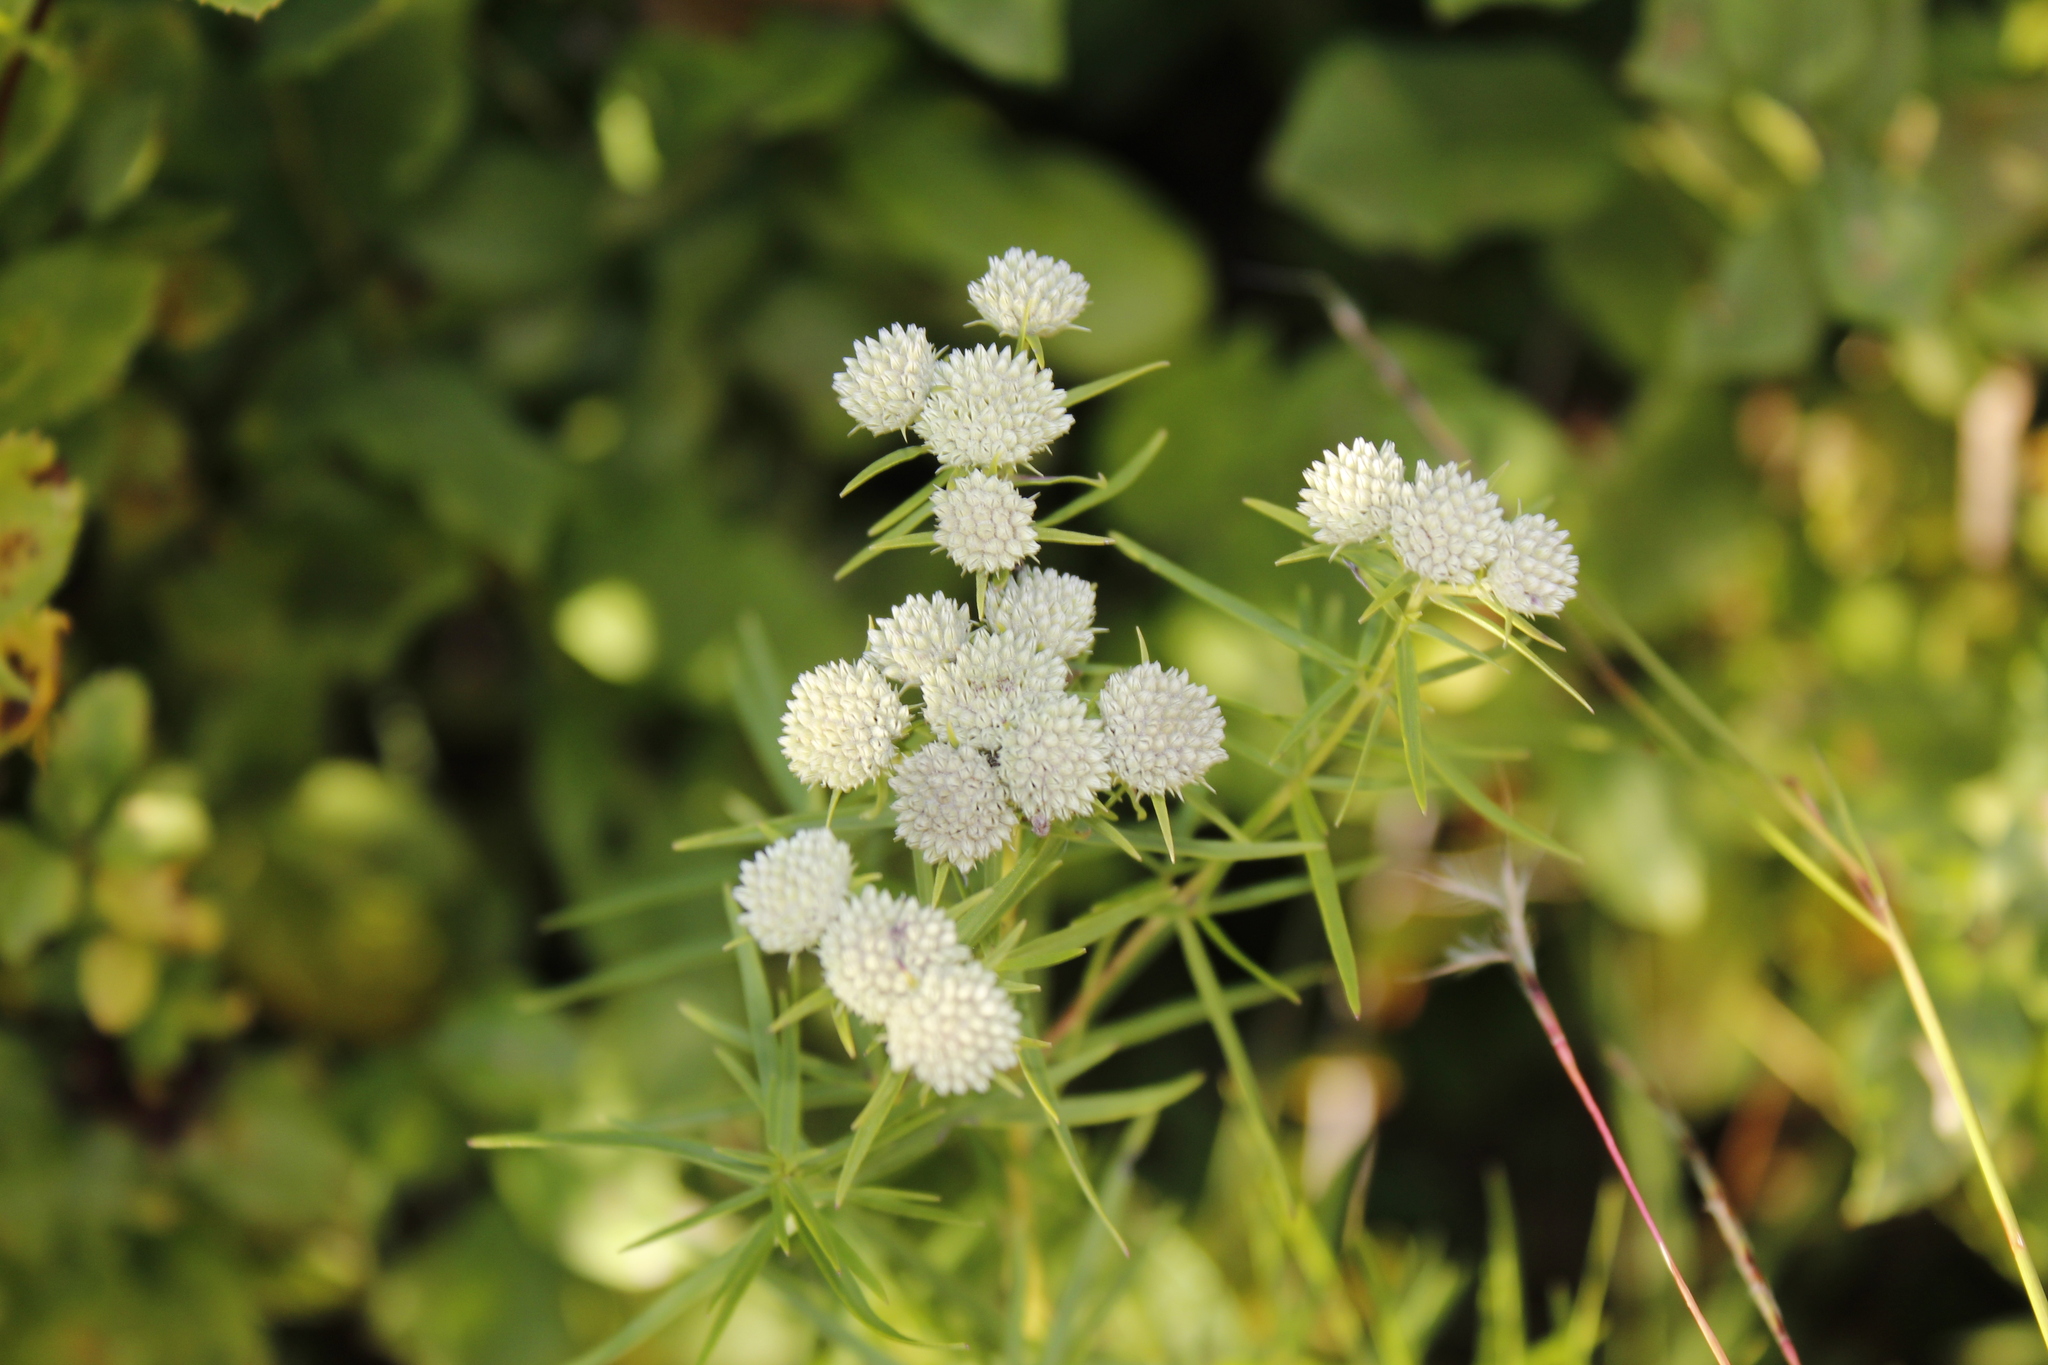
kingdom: Plantae
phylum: Tracheophyta
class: Magnoliopsida
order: Lamiales
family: Lamiaceae
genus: Pycnanthemum
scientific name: Pycnanthemum tenuifolium
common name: Narrow-leaf mountain-mint
